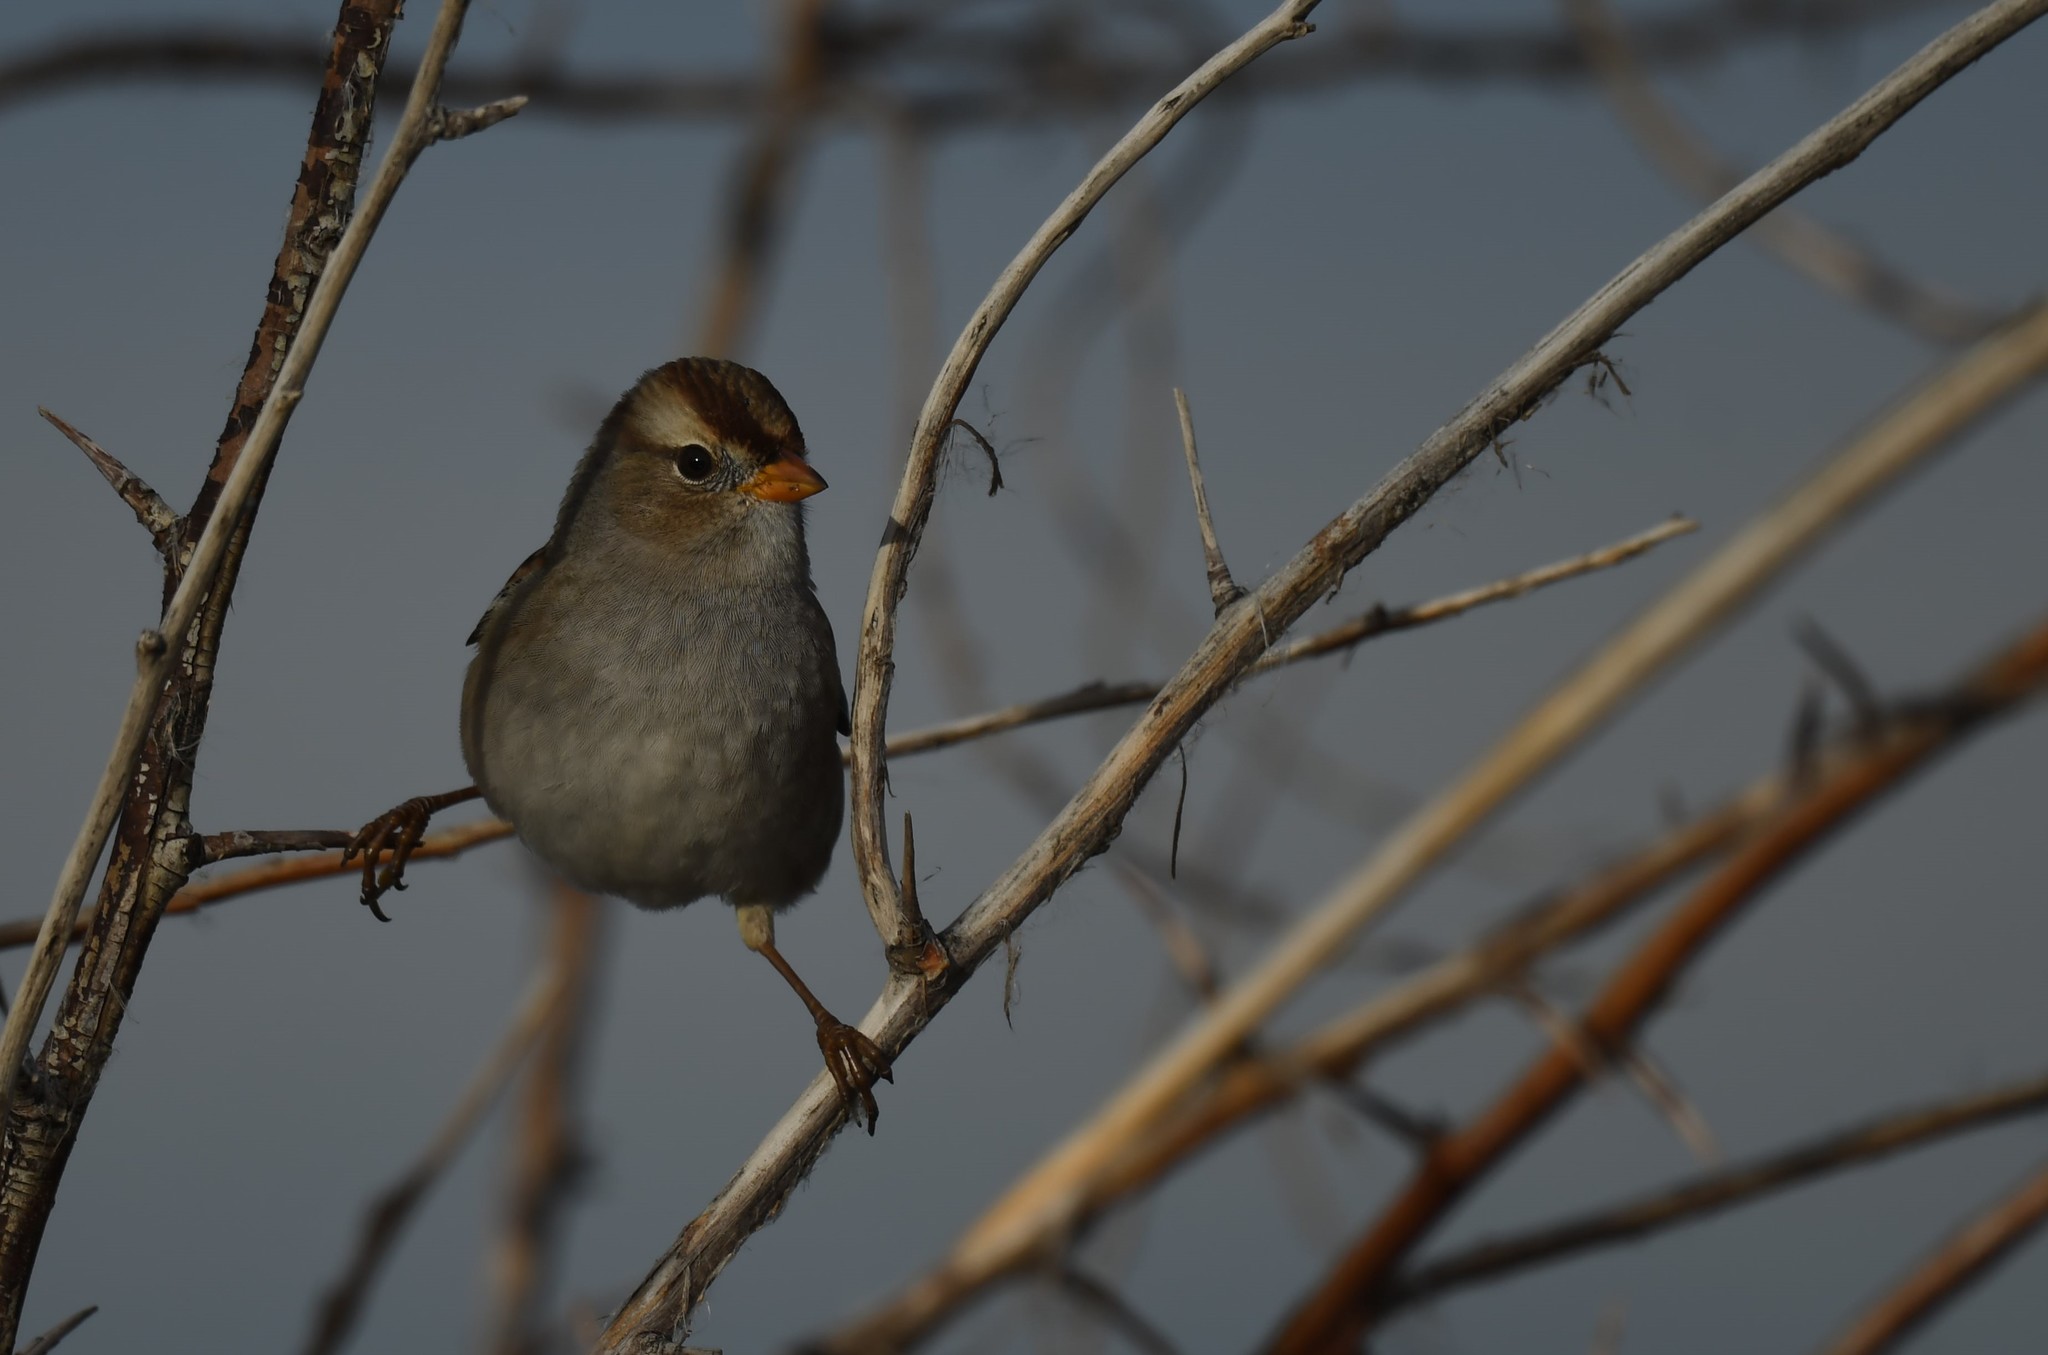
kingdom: Animalia
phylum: Chordata
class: Aves
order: Passeriformes
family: Passerellidae
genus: Zonotrichia
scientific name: Zonotrichia leucophrys
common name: White-crowned sparrow
